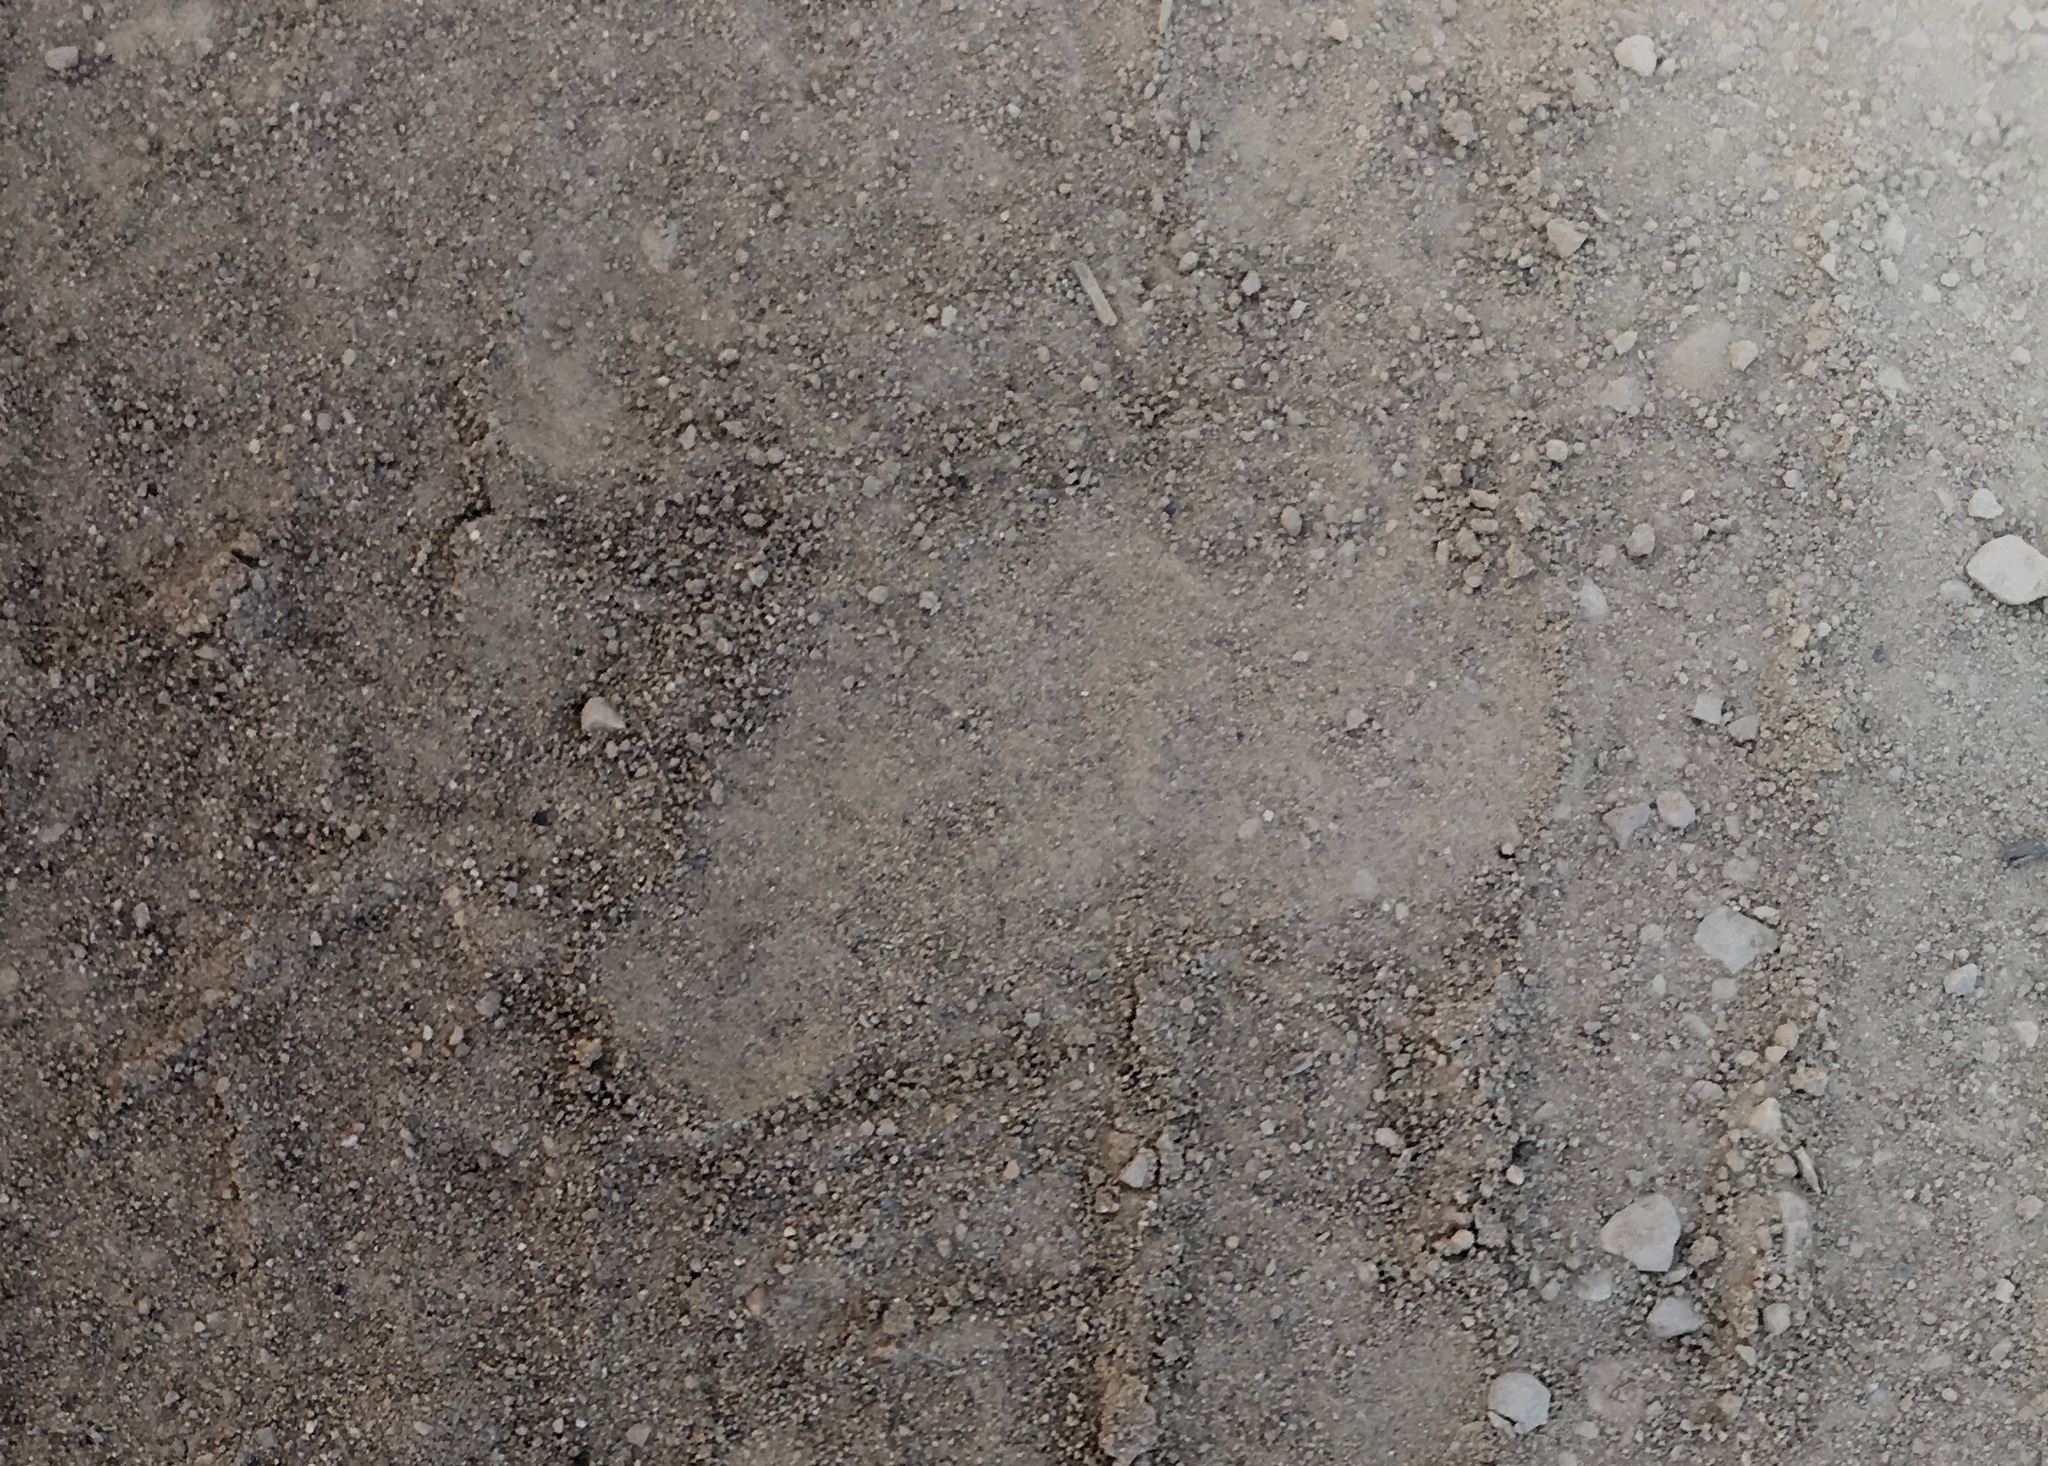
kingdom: Animalia
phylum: Chordata
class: Mammalia
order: Carnivora
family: Ursidae
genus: Ursus
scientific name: Ursus americanus
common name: American black bear
